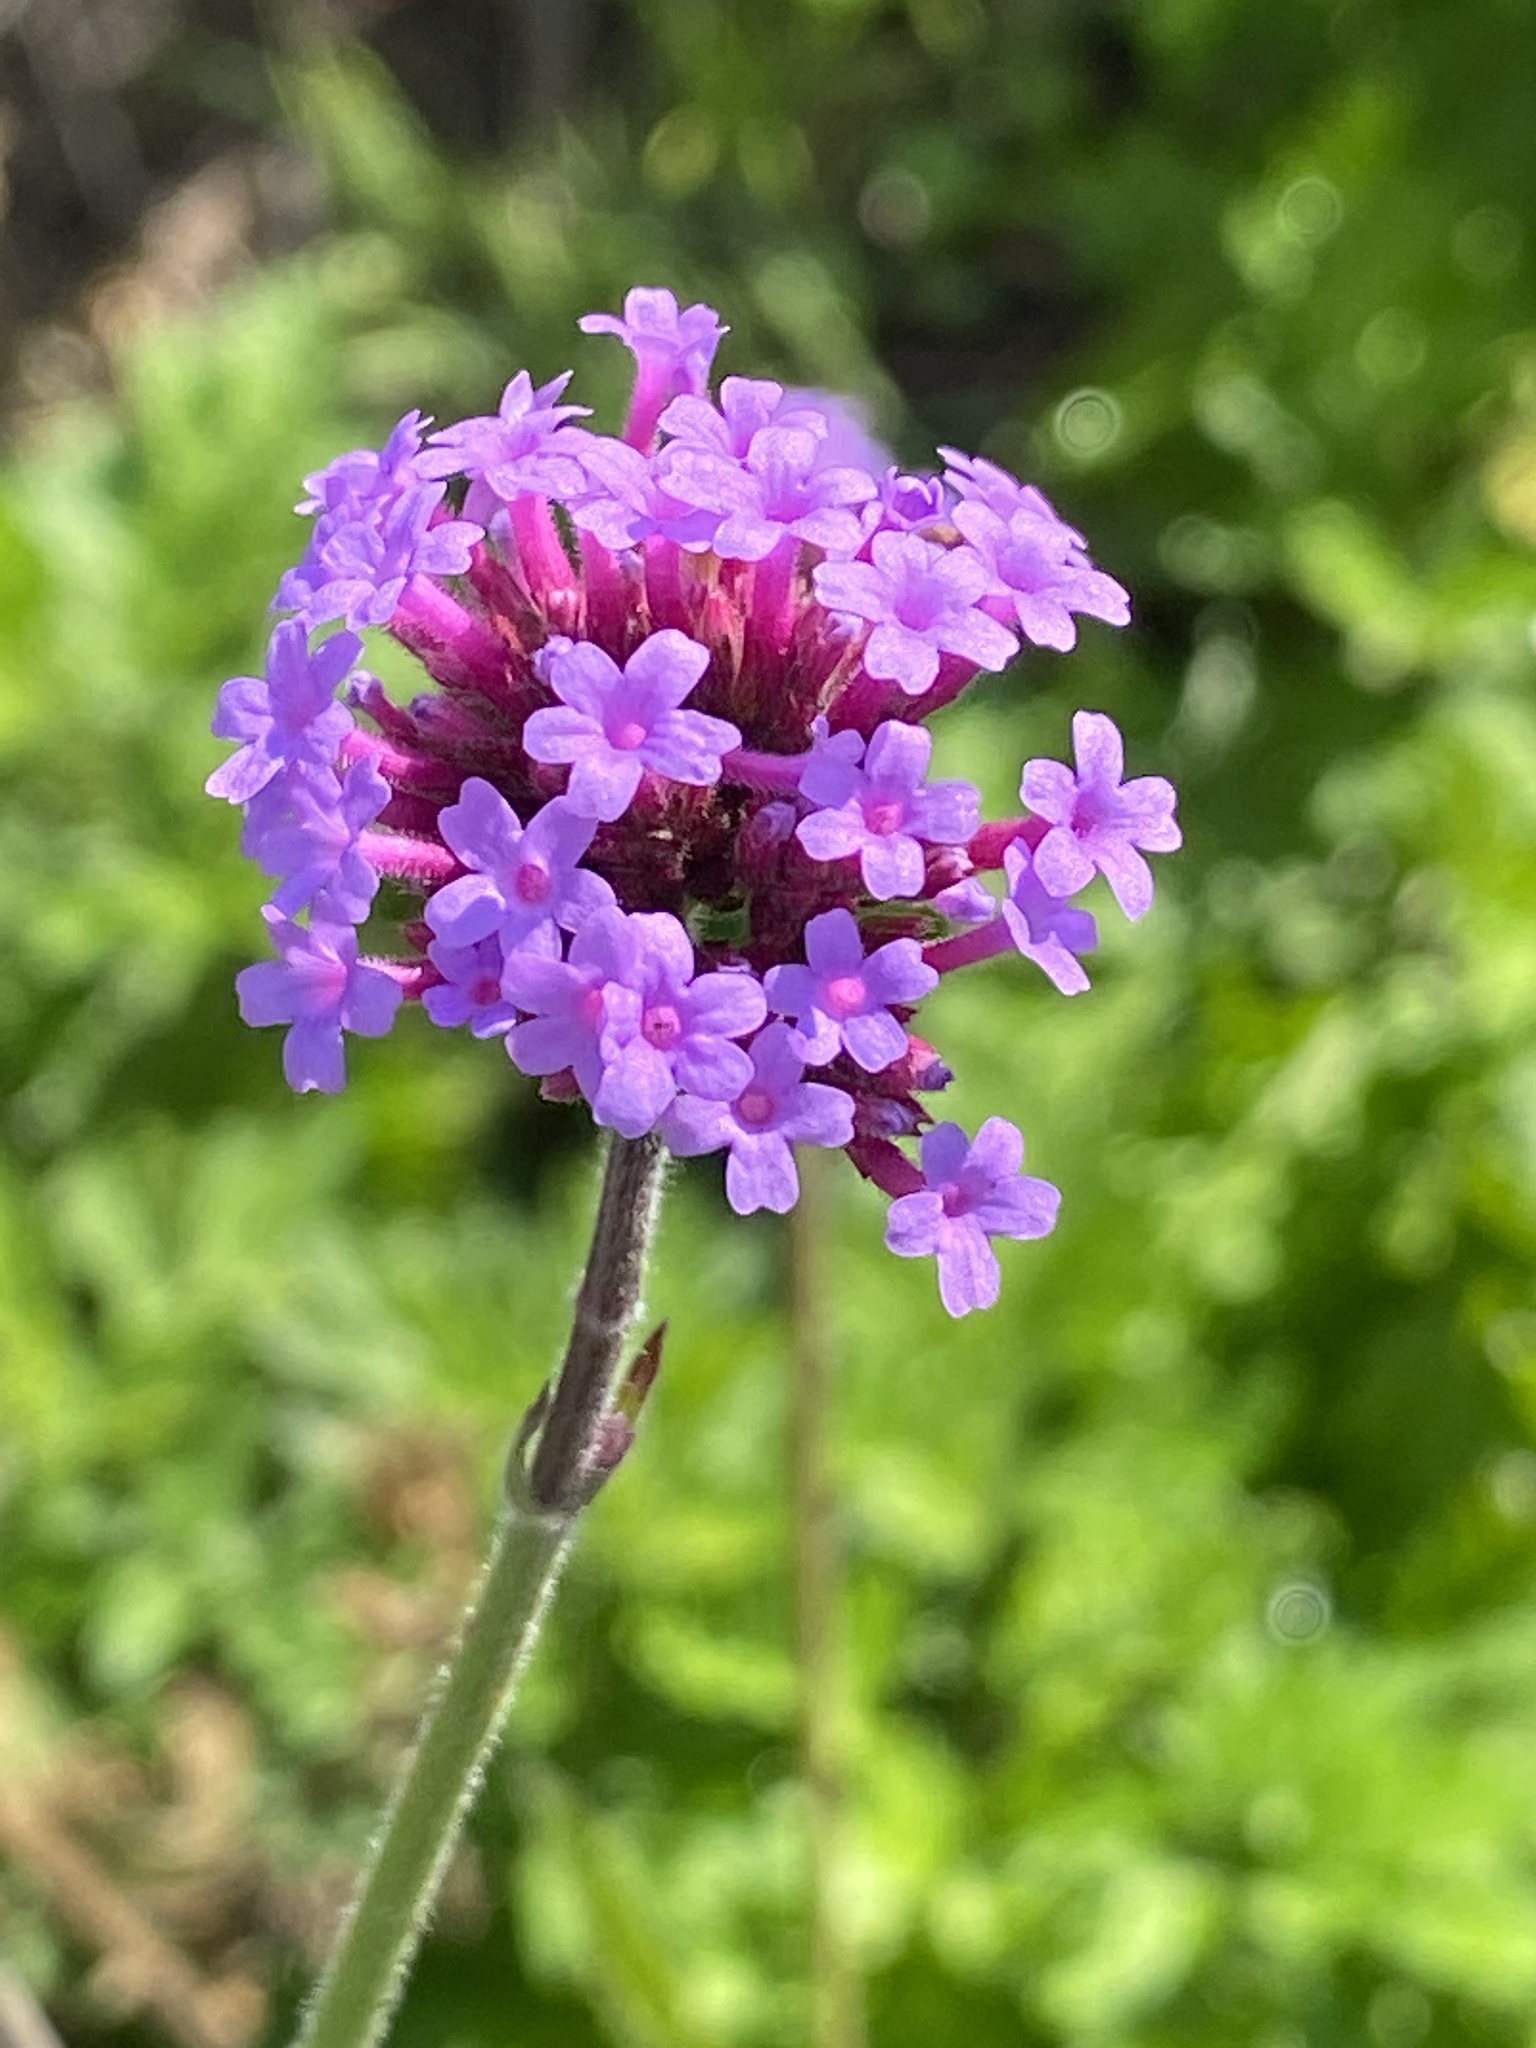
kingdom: Plantae
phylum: Tracheophyta
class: Magnoliopsida
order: Lamiales
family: Verbenaceae
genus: Verbena
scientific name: Verbena bonariensis
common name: Purpletop vervain
